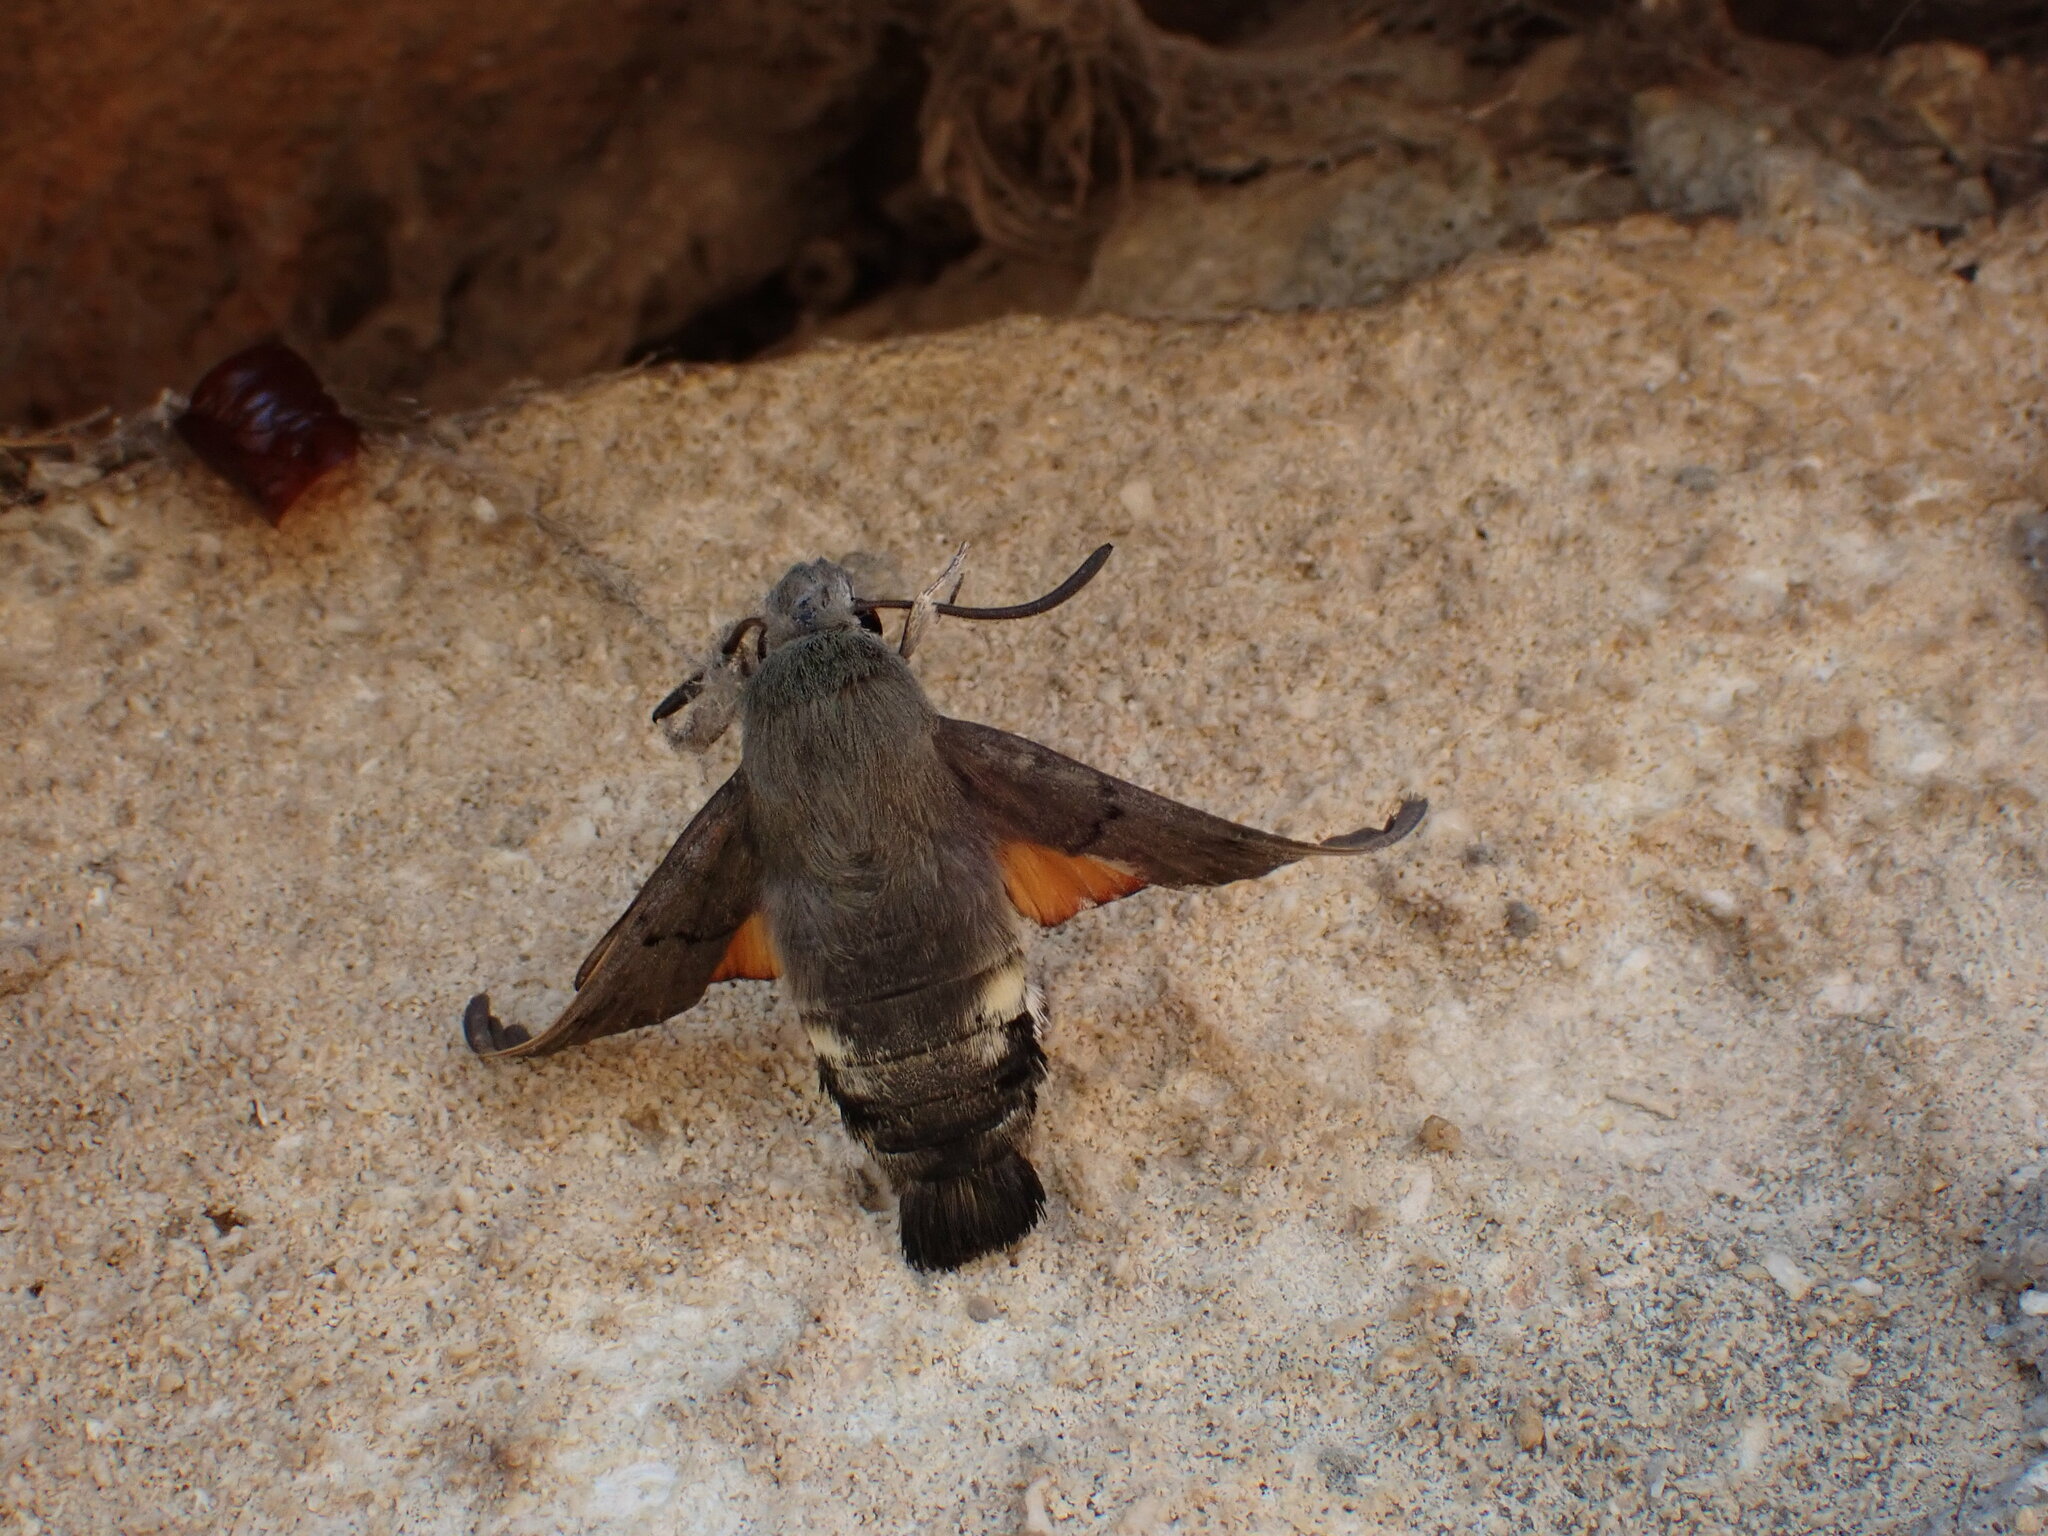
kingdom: Animalia
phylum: Arthropoda
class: Insecta
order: Lepidoptera
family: Sphingidae
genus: Macroglossum
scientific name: Macroglossum stellatarum
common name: Humming-bird hawk-moth
